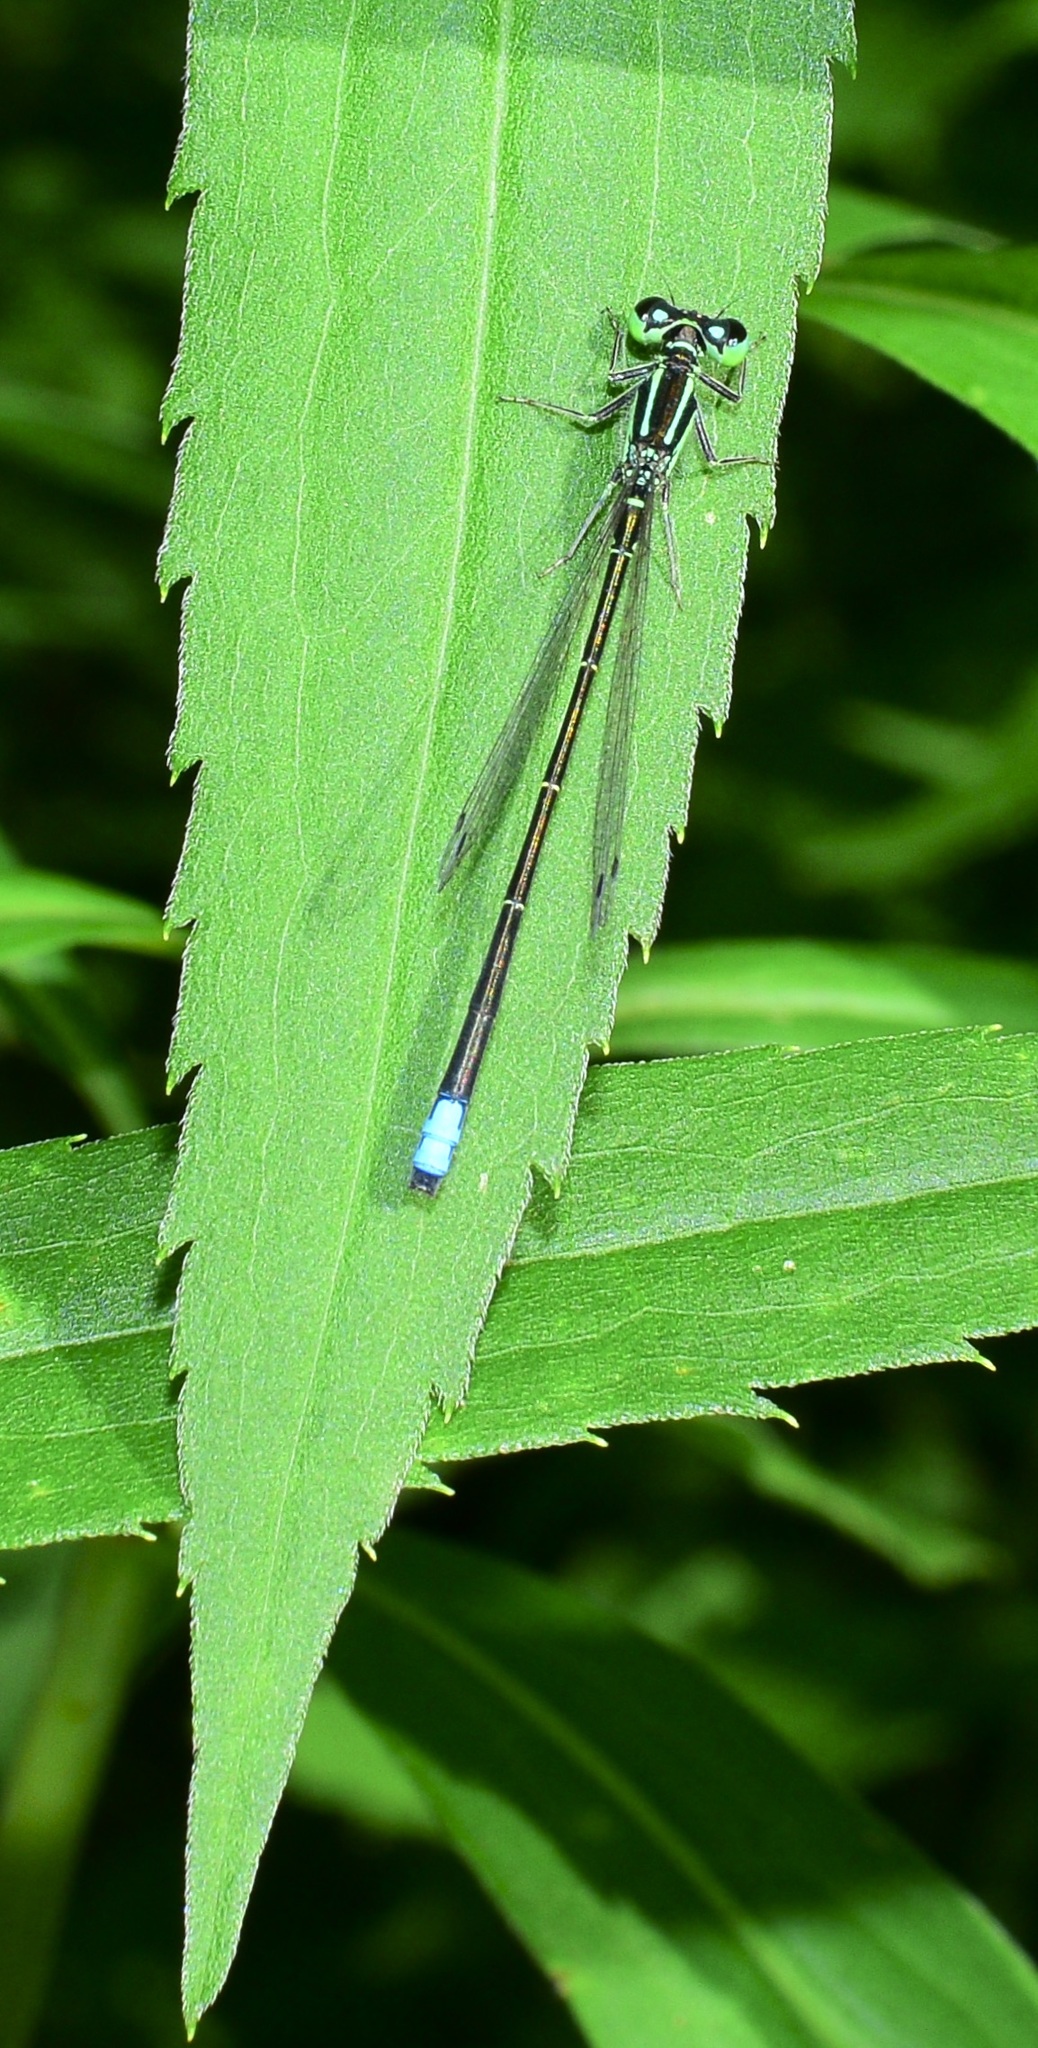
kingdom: Animalia
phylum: Arthropoda
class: Insecta
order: Odonata
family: Coenagrionidae
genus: Ischnura
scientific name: Ischnura verticalis
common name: Eastern forktail
